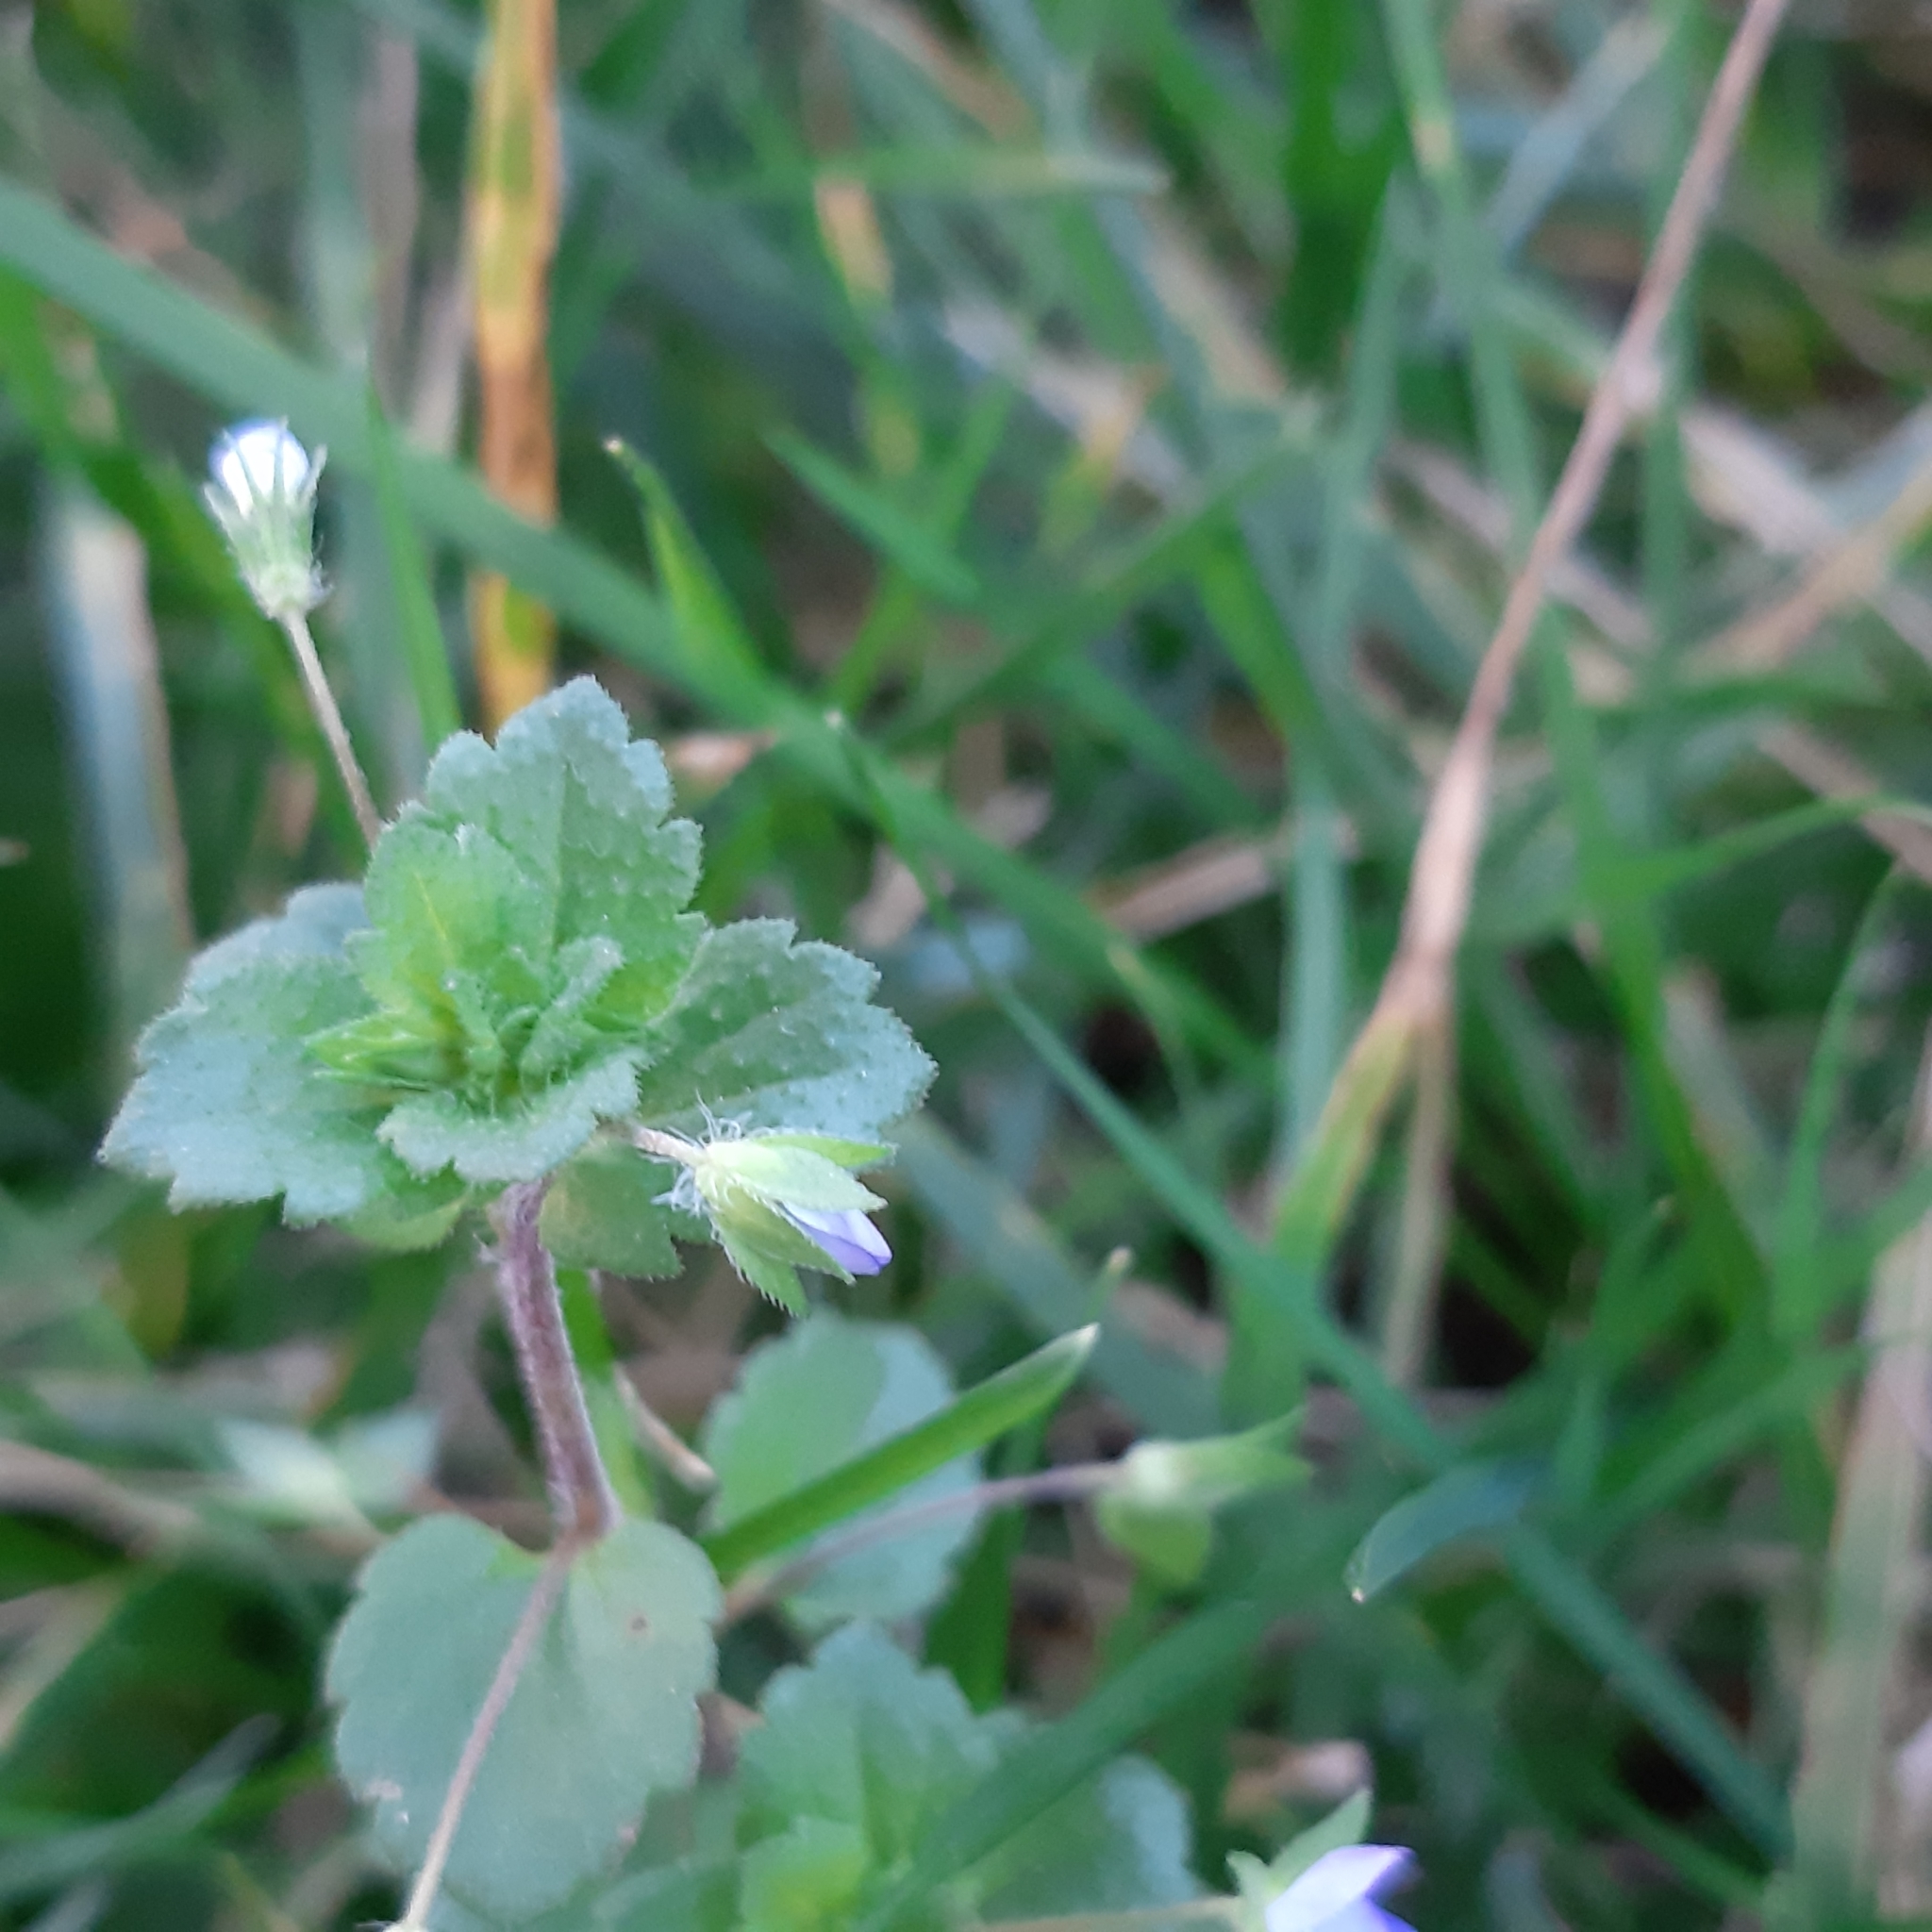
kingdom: Plantae
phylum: Tracheophyta
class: Magnoliopsida
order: Lamiales
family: Plantaginaceae
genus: Veronica
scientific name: Veronica persica
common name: Common field-speedwell
